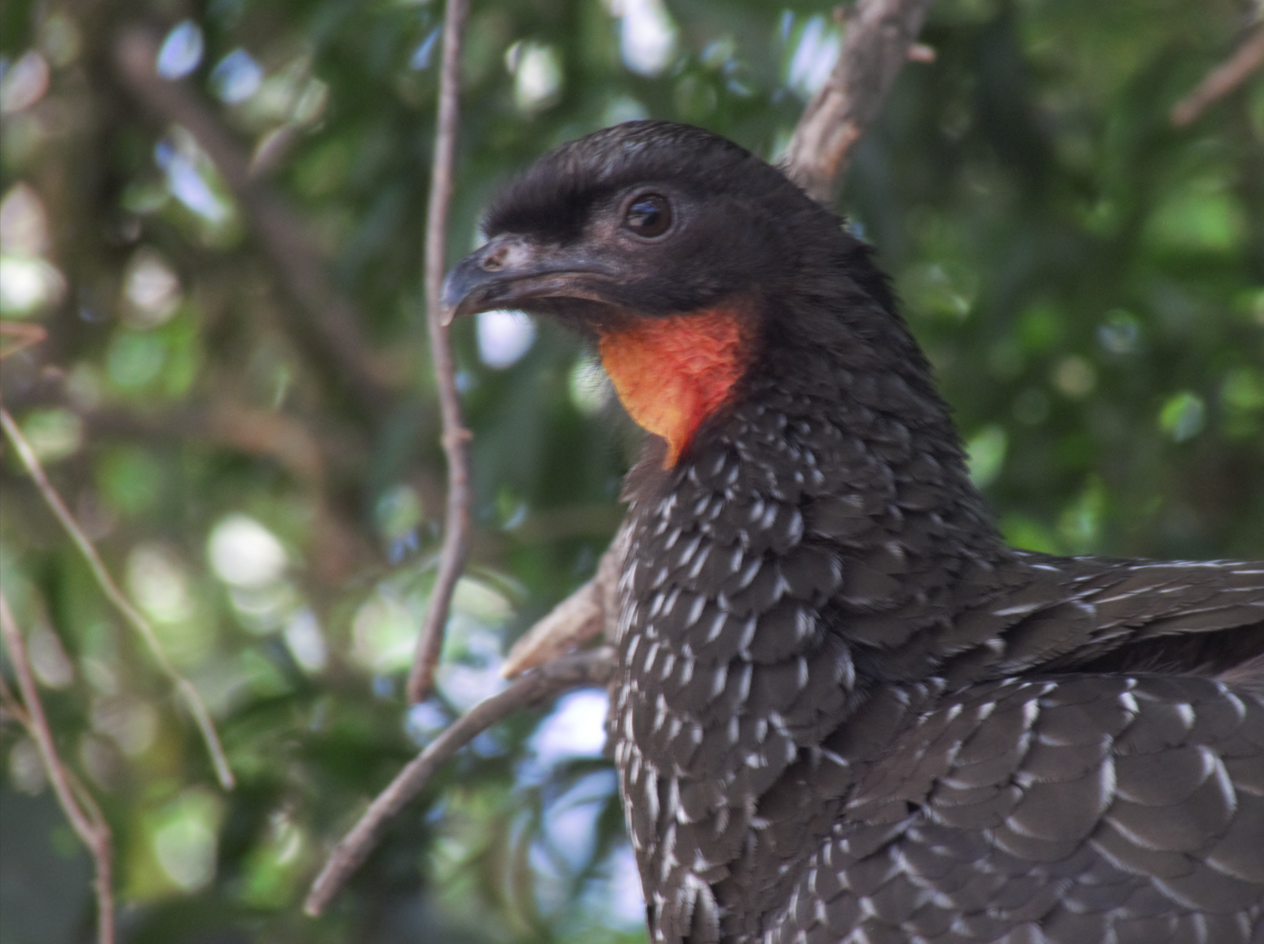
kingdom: Animalia
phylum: Chordata
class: Aves
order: Galliformes
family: Cracidae
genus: Penelope
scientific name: Penelope obscura
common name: Dusky-legged guan
